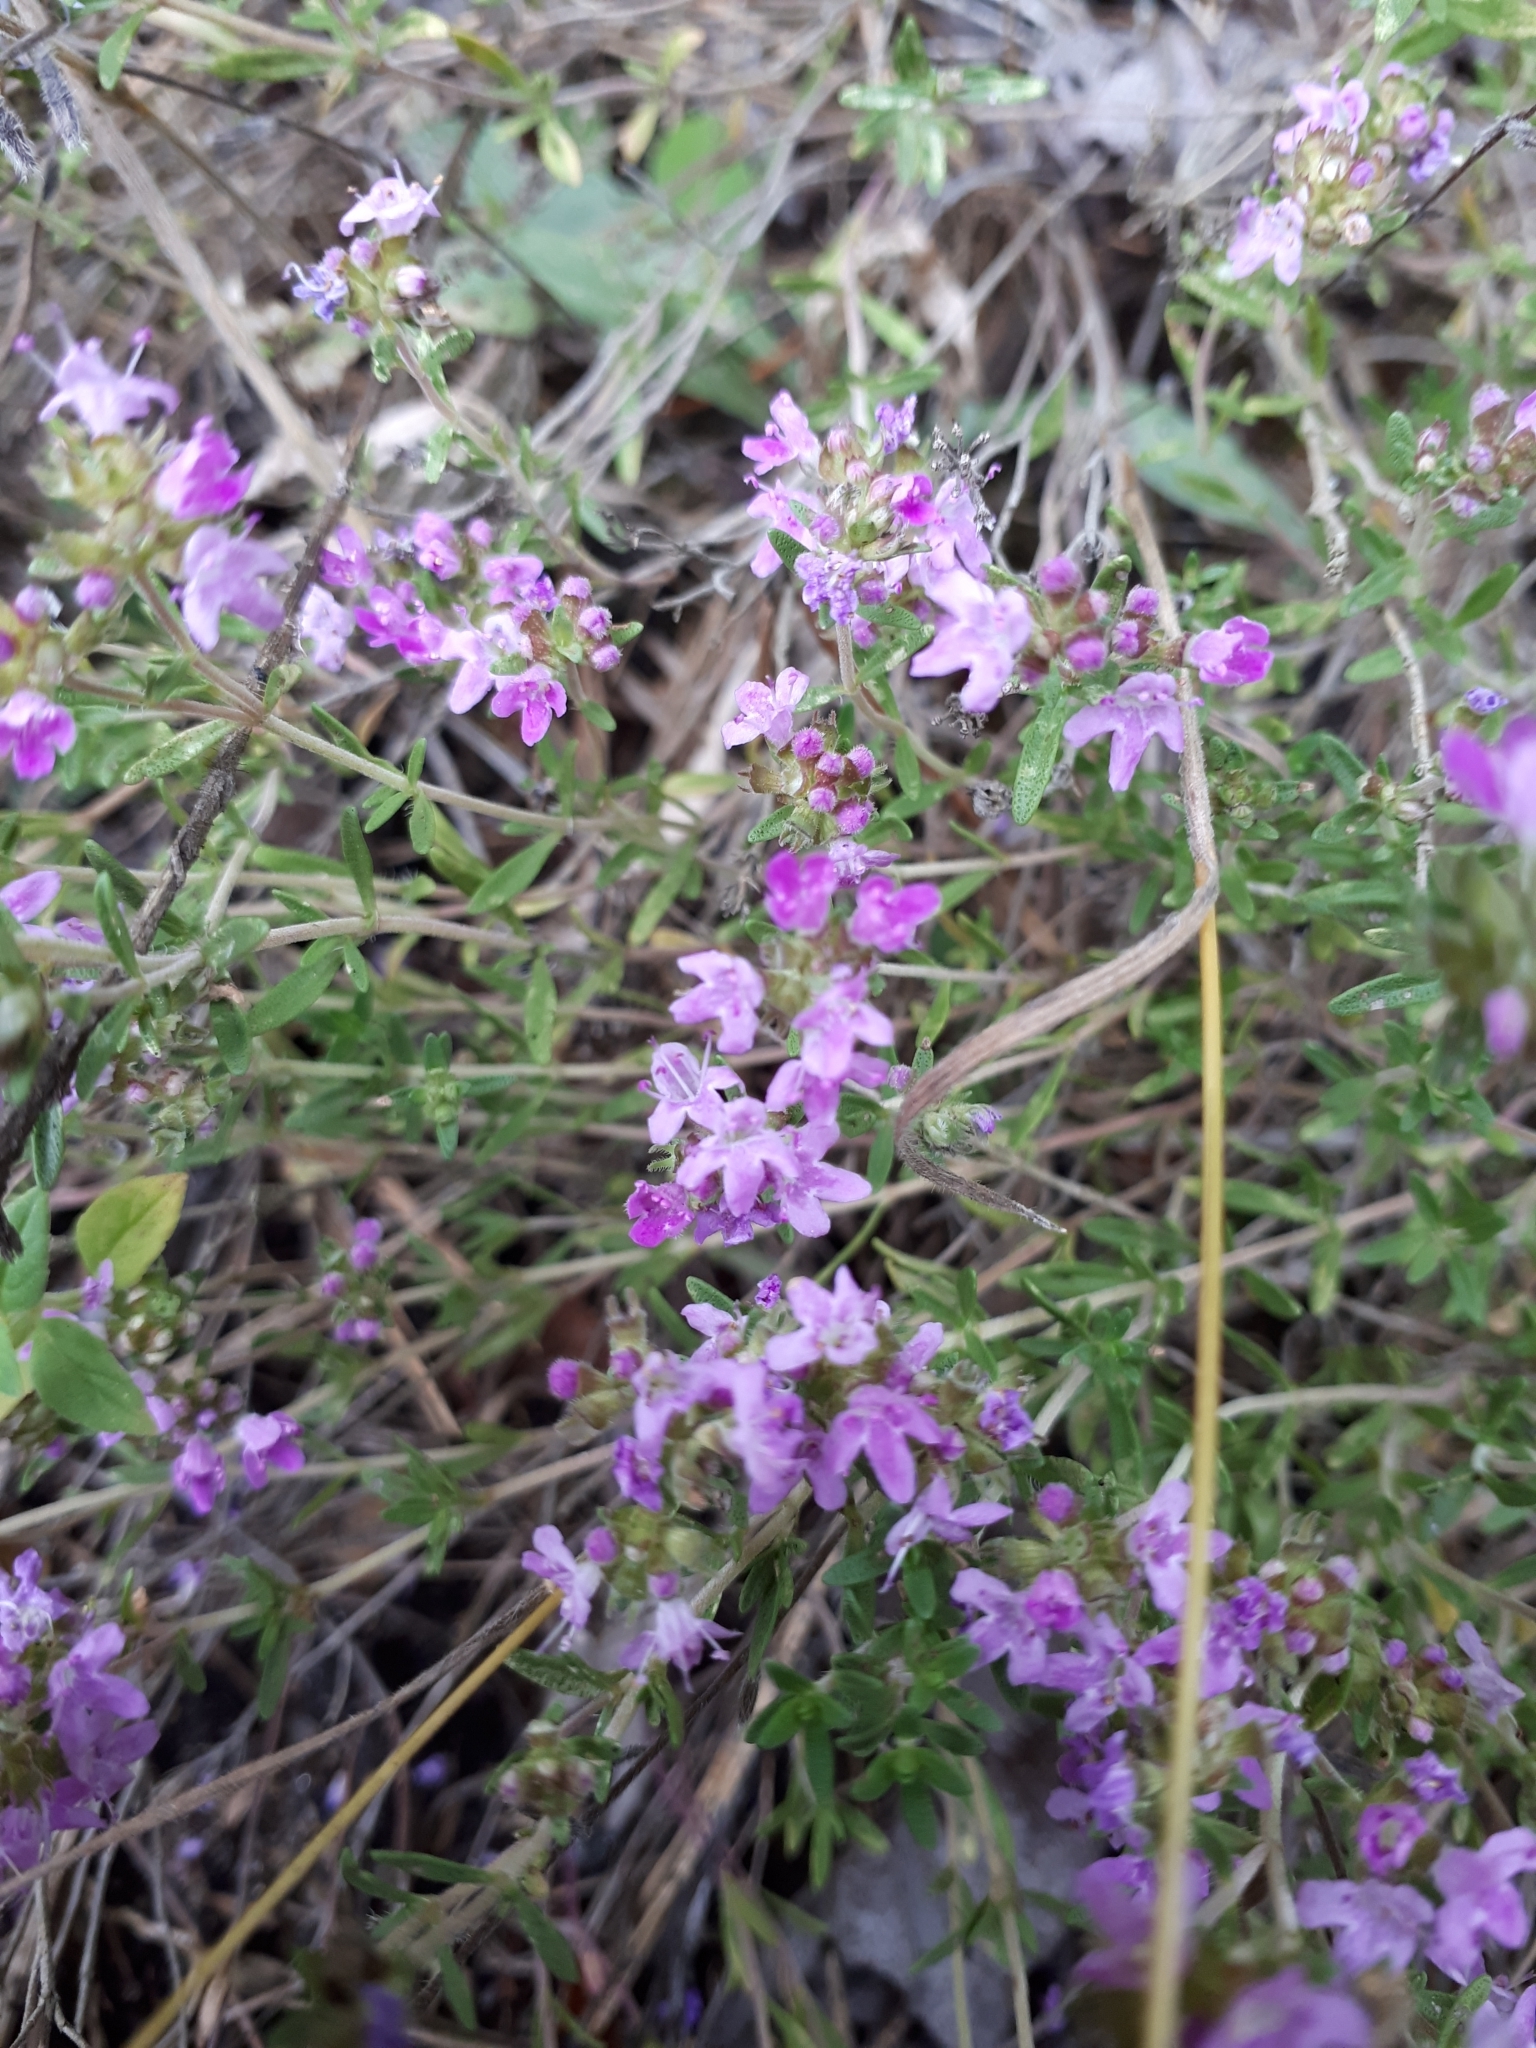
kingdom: Plantae
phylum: Tracheophyta
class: Magnoliopsida
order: Lamiales
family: Lamiaceae
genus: Thymus
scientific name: Thymus pallasianus
